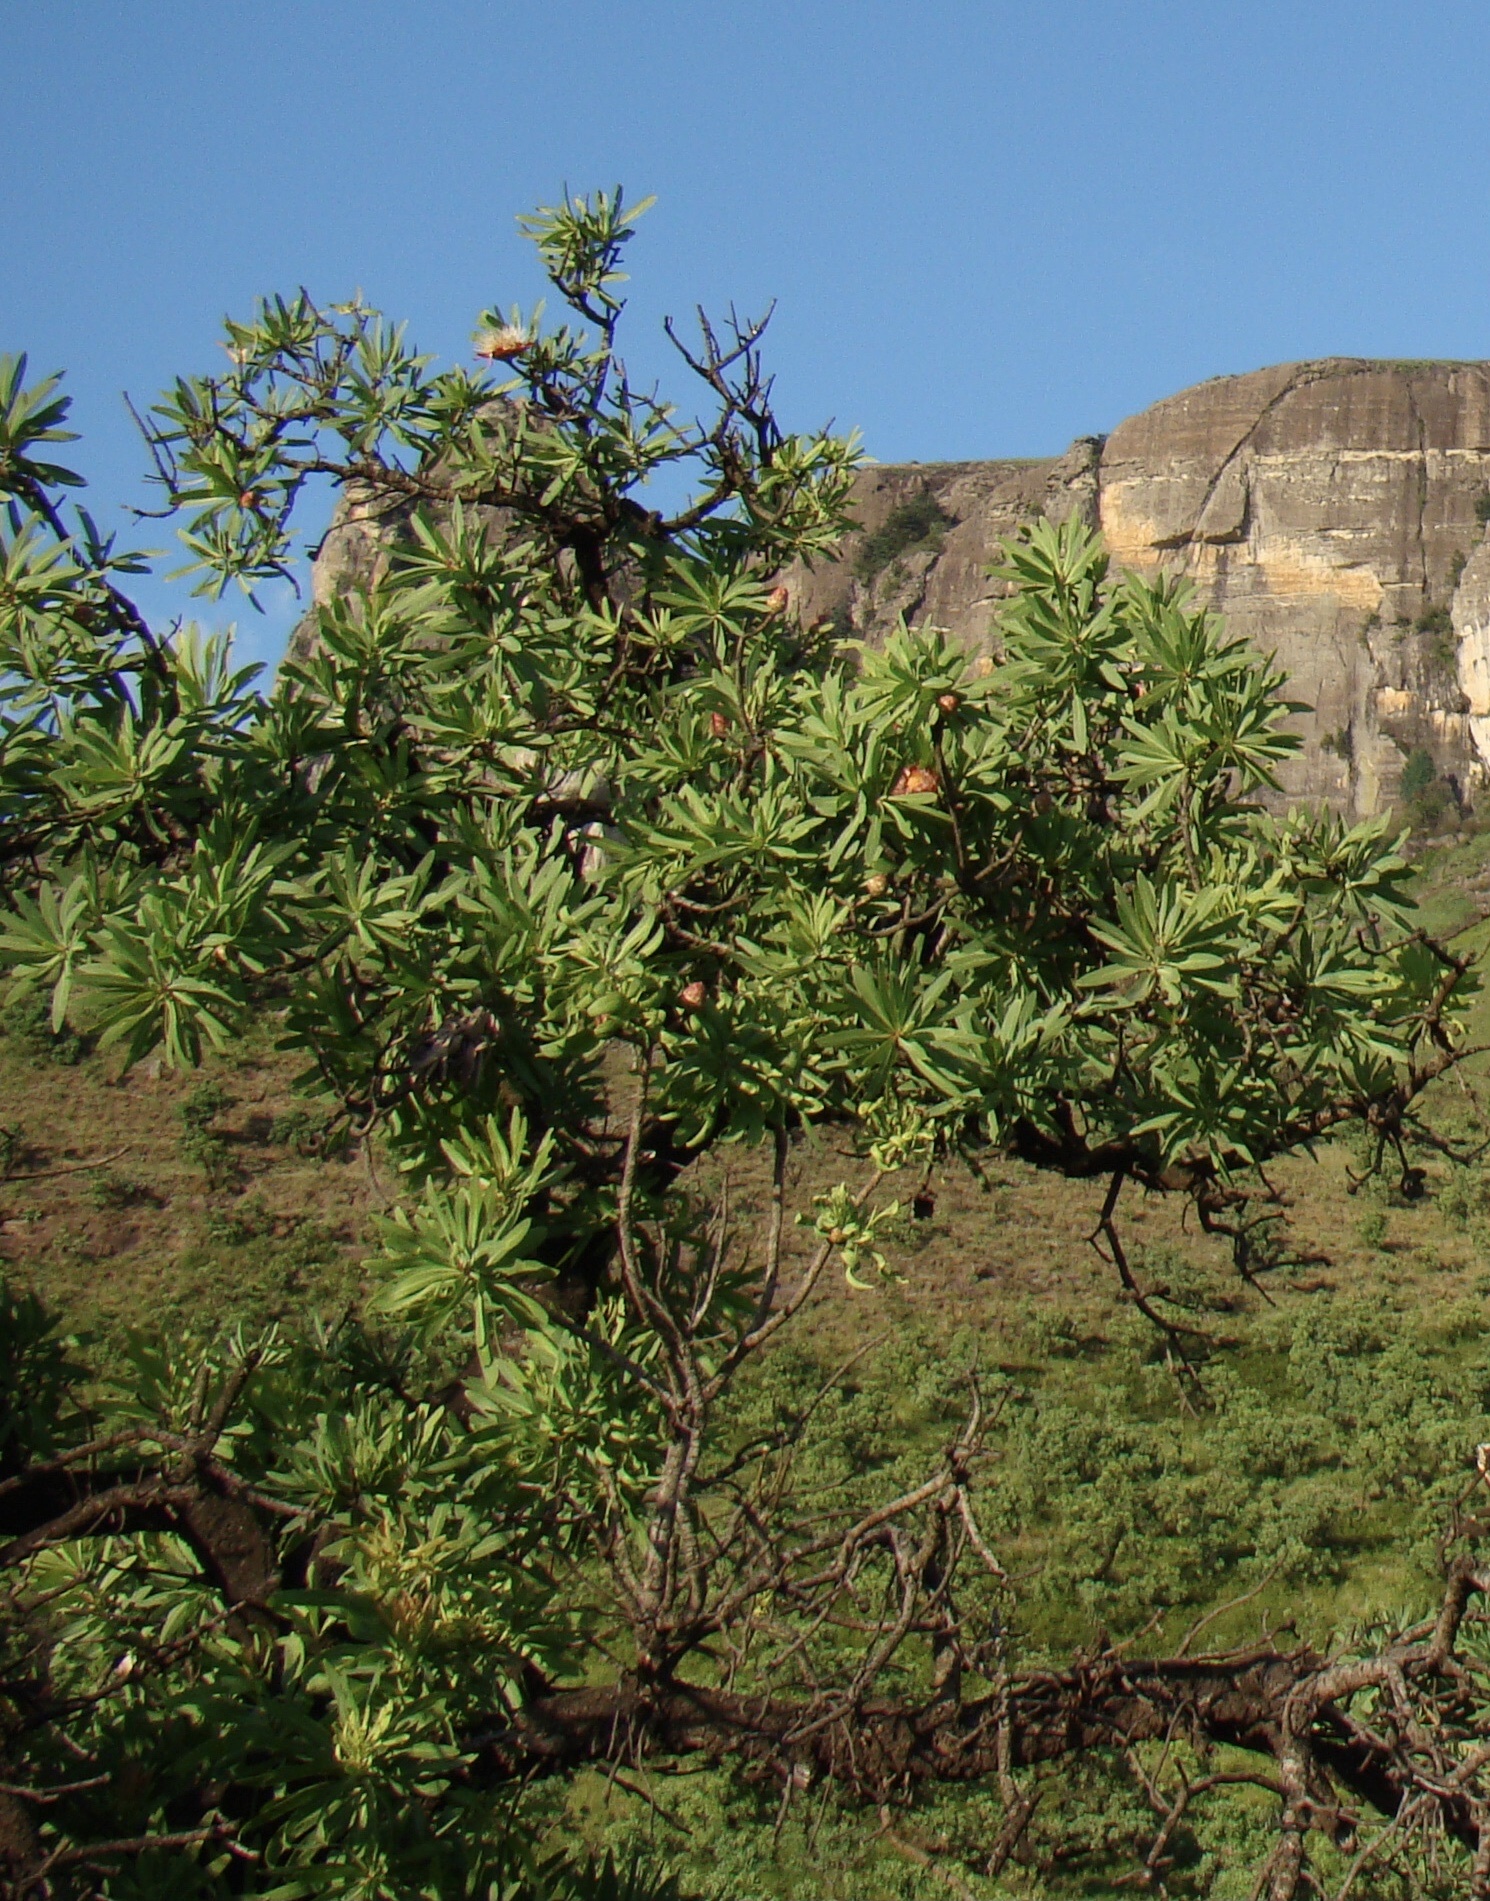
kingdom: Plantae
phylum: Tracheophyta
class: Magnoliopsida
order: Proteales
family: Proteaceae
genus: Protea
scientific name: Protea caffra
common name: Common sugarbush
